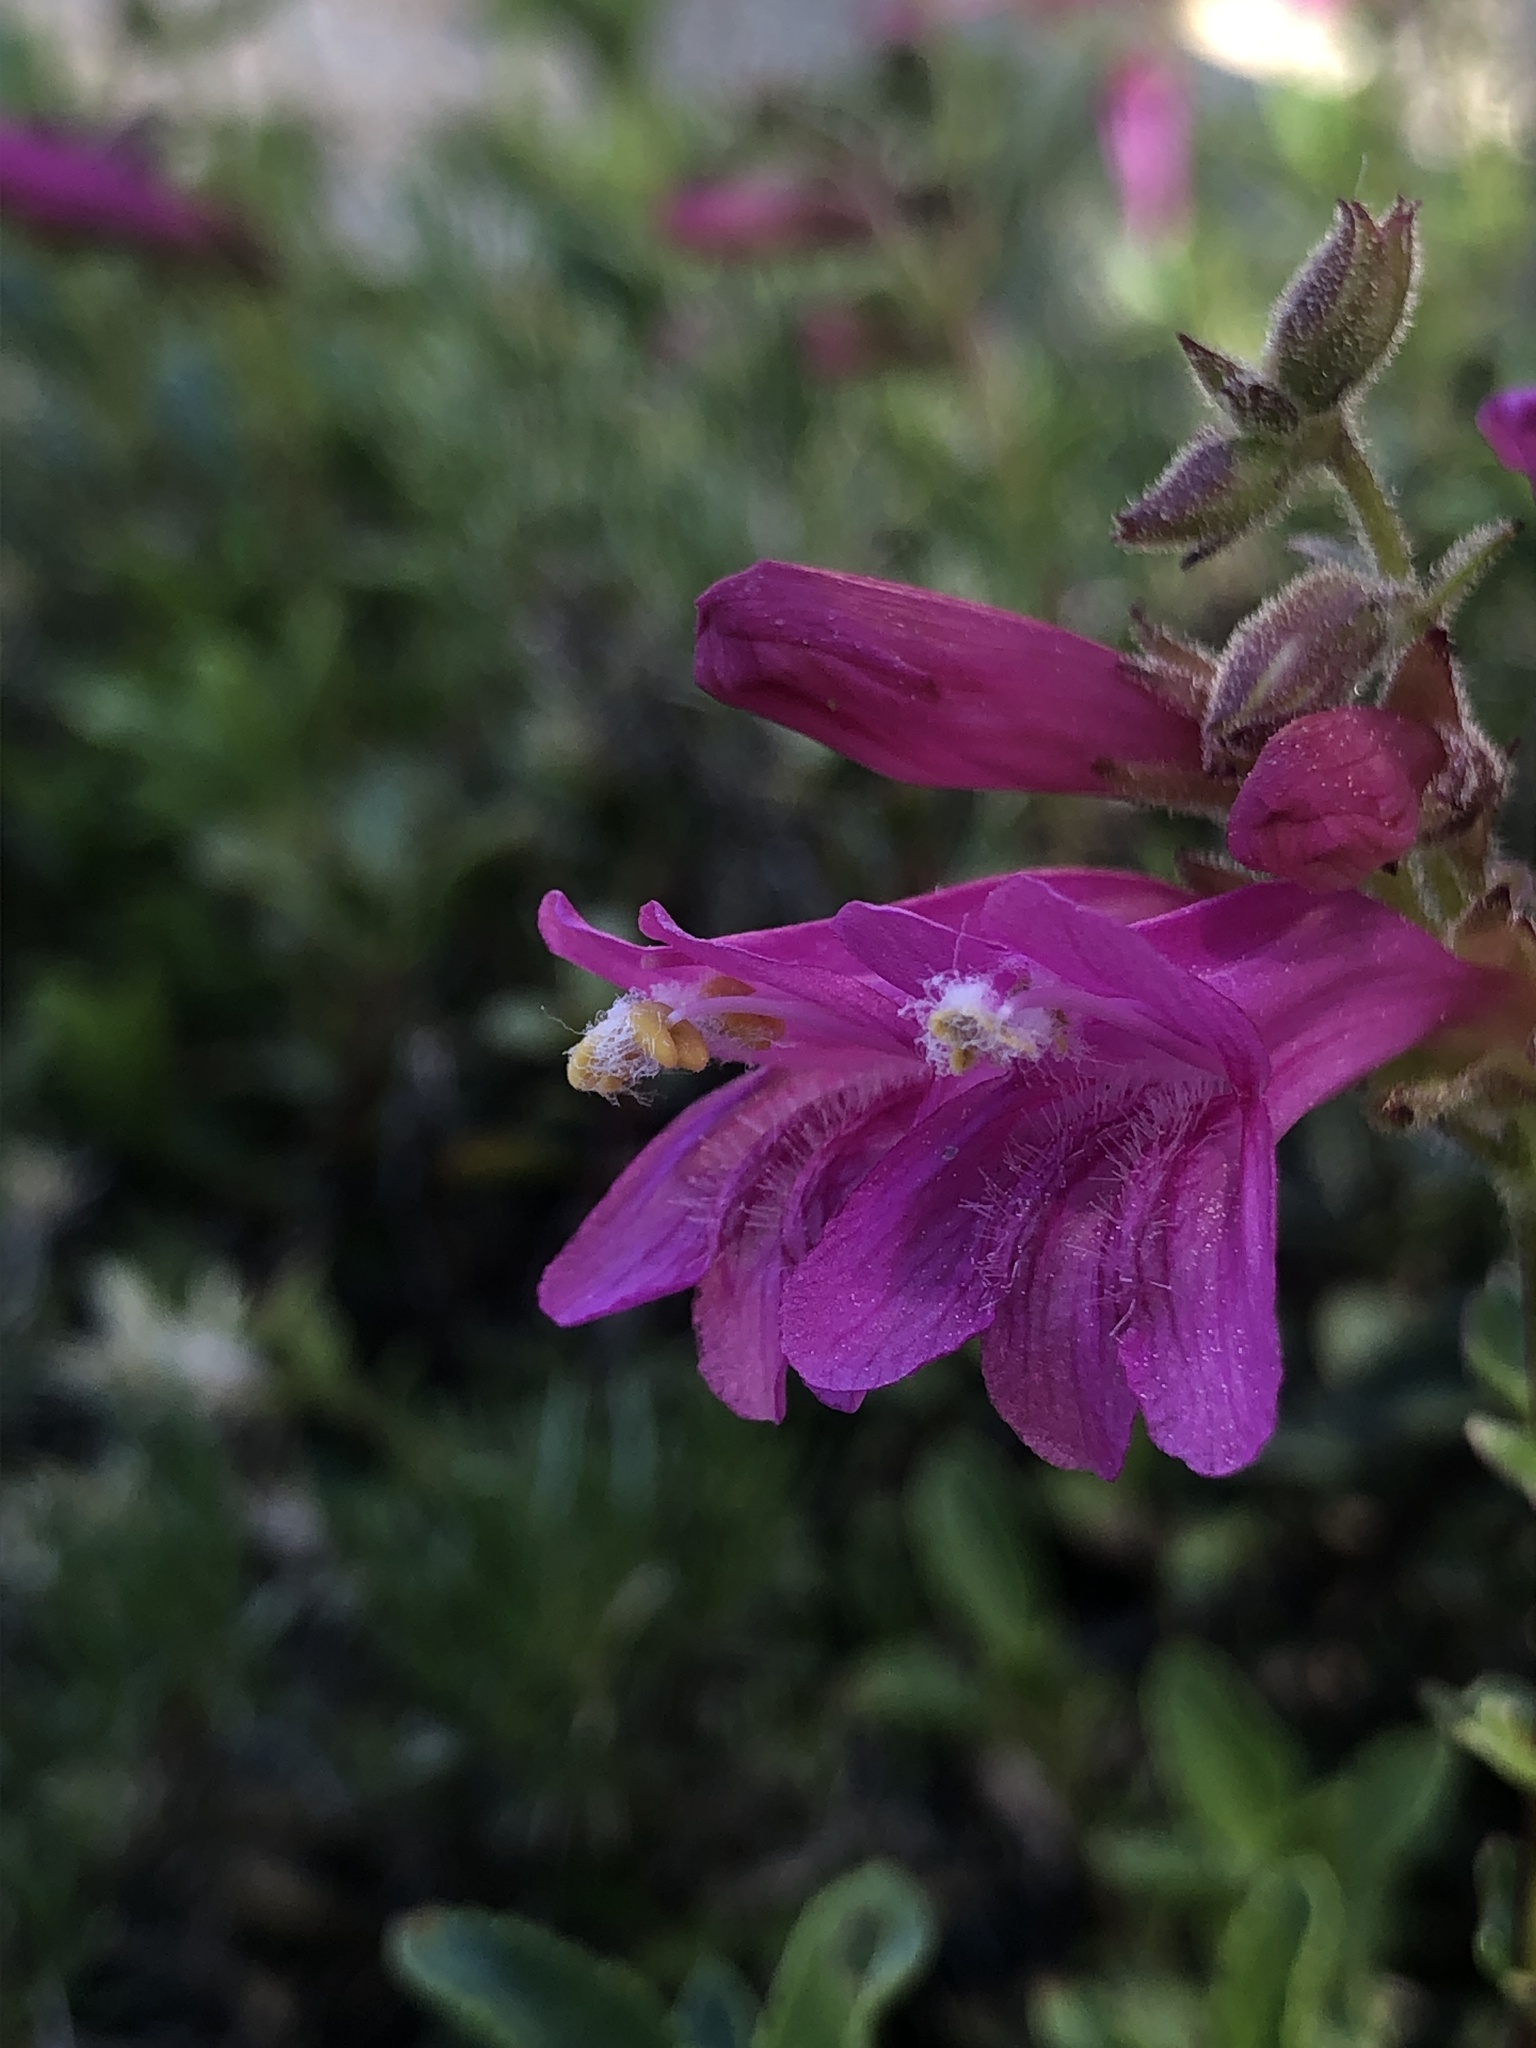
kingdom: Plantae
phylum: Tracheophyta
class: Magnoliopsida
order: Lamiales
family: Plantaginaceae
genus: Penstemon
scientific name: Penstemon newberryi
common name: Mountain-pride
